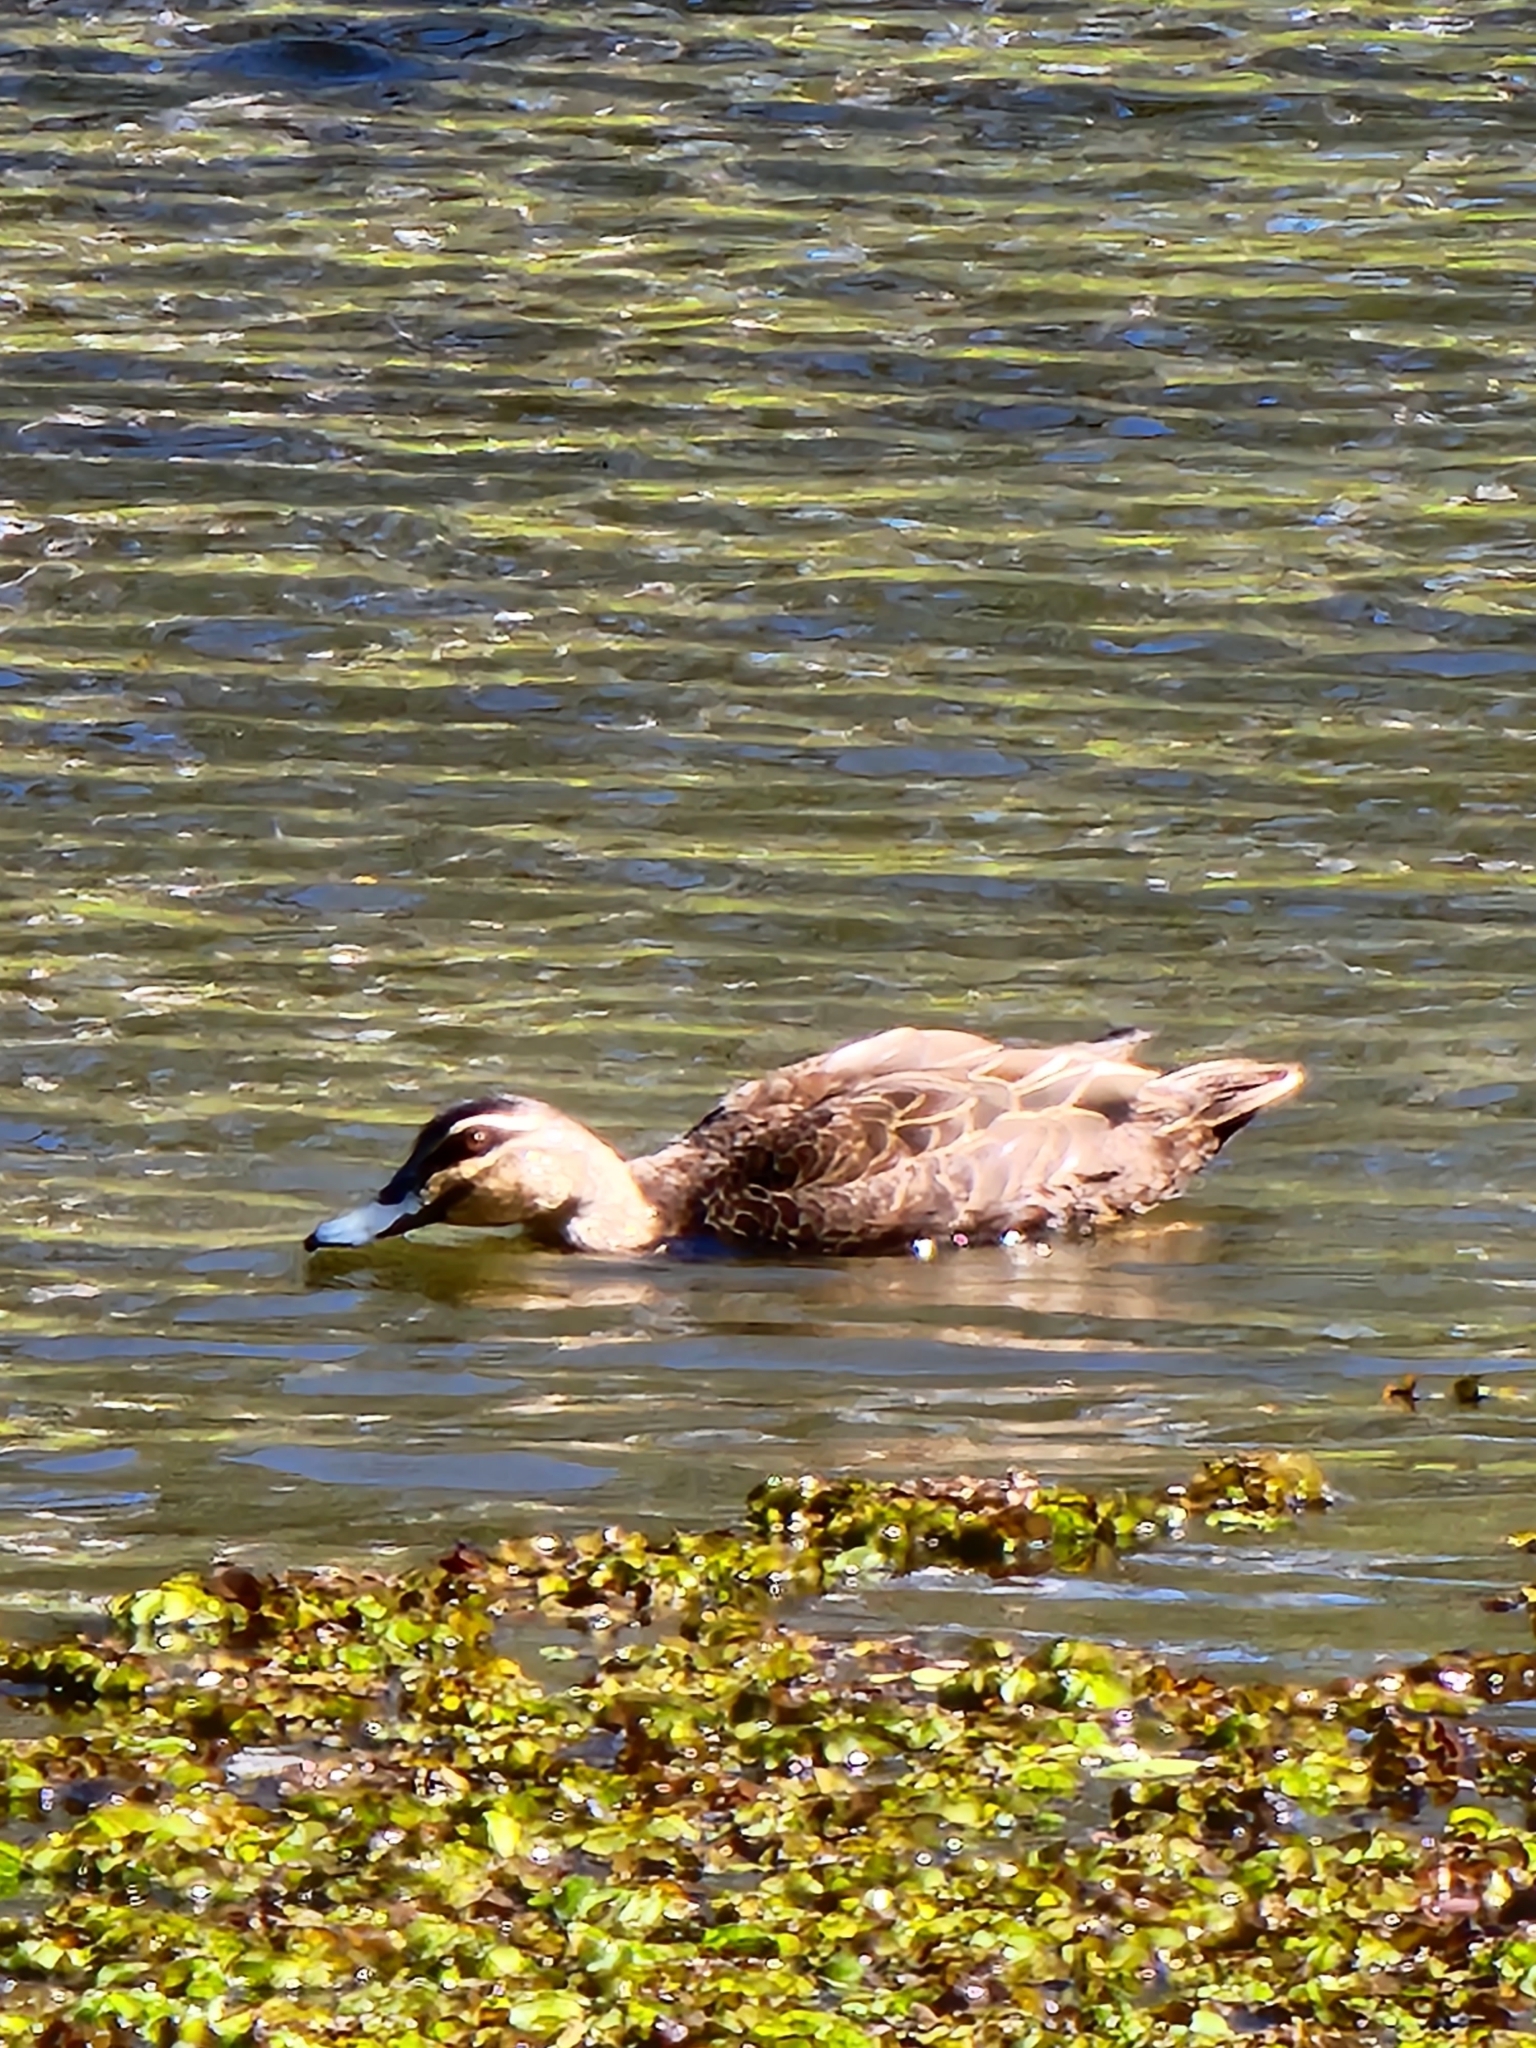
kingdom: Animalia
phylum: Chordata
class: Aves
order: Anseriformes
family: Anatidae
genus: Anas
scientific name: Anas superciliosa
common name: Pacific black duck
